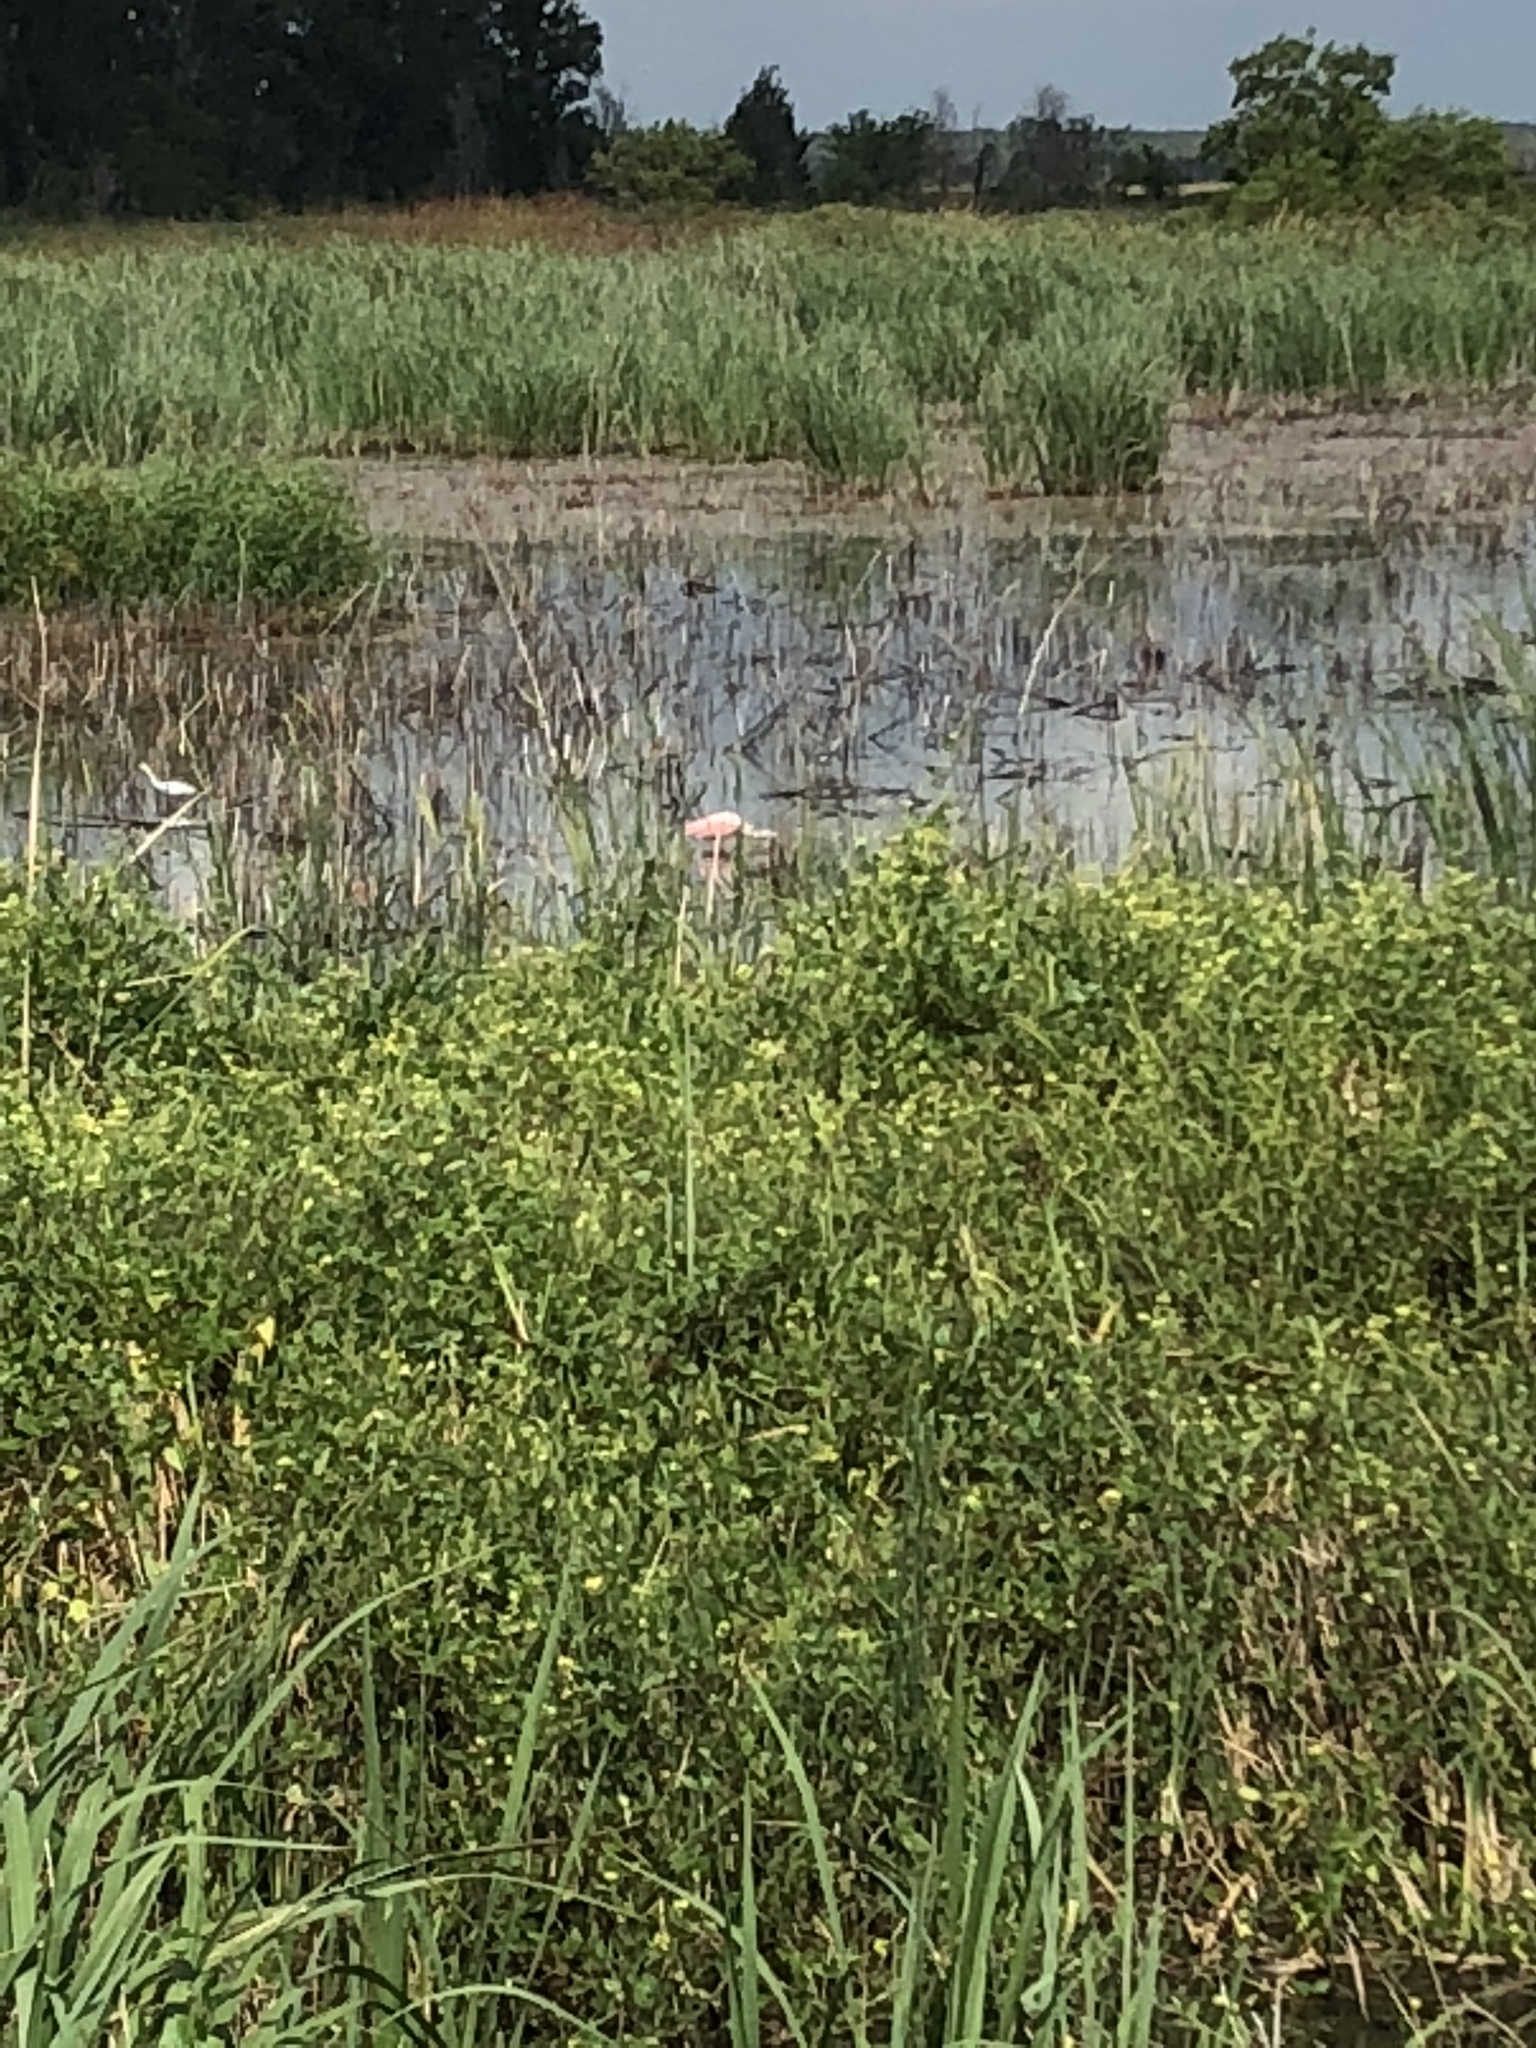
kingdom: Animalia
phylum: Chordata
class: Aves
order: Pelecaniformes
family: Threskiornithidae
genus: Platalea
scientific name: Platalea ajaja
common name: Roseate spoonbill
